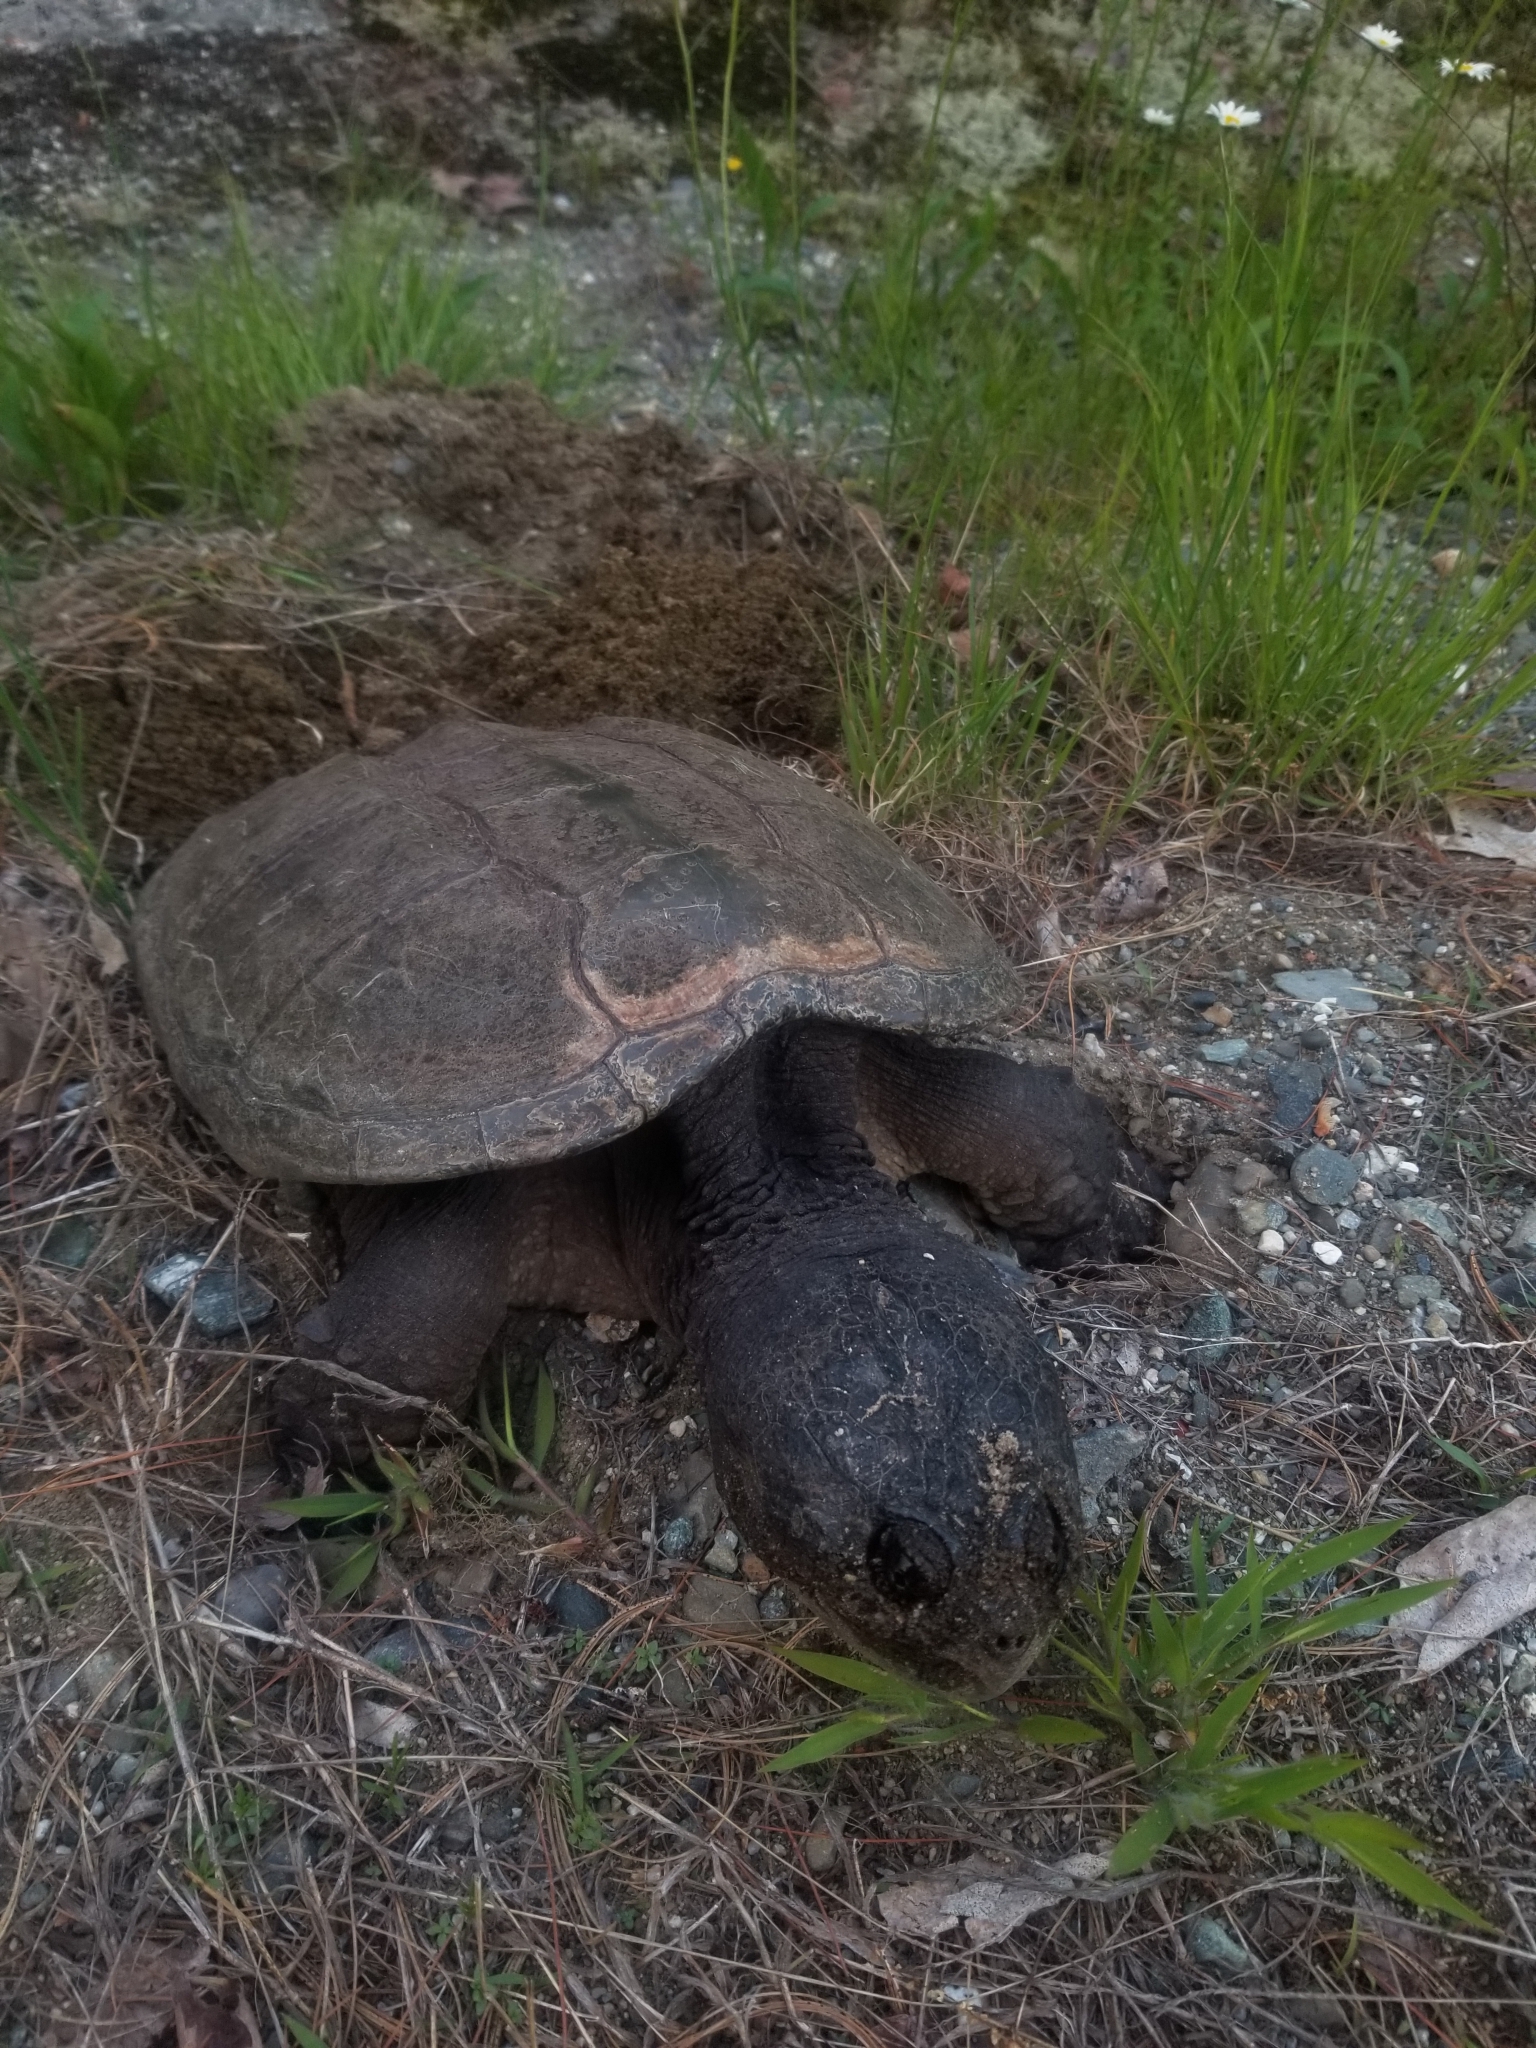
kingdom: Animalia
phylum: Chordata
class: Testudines
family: Chelydridae
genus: Chelydra
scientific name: Chelydra serpentina
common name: Common snapping turtle
